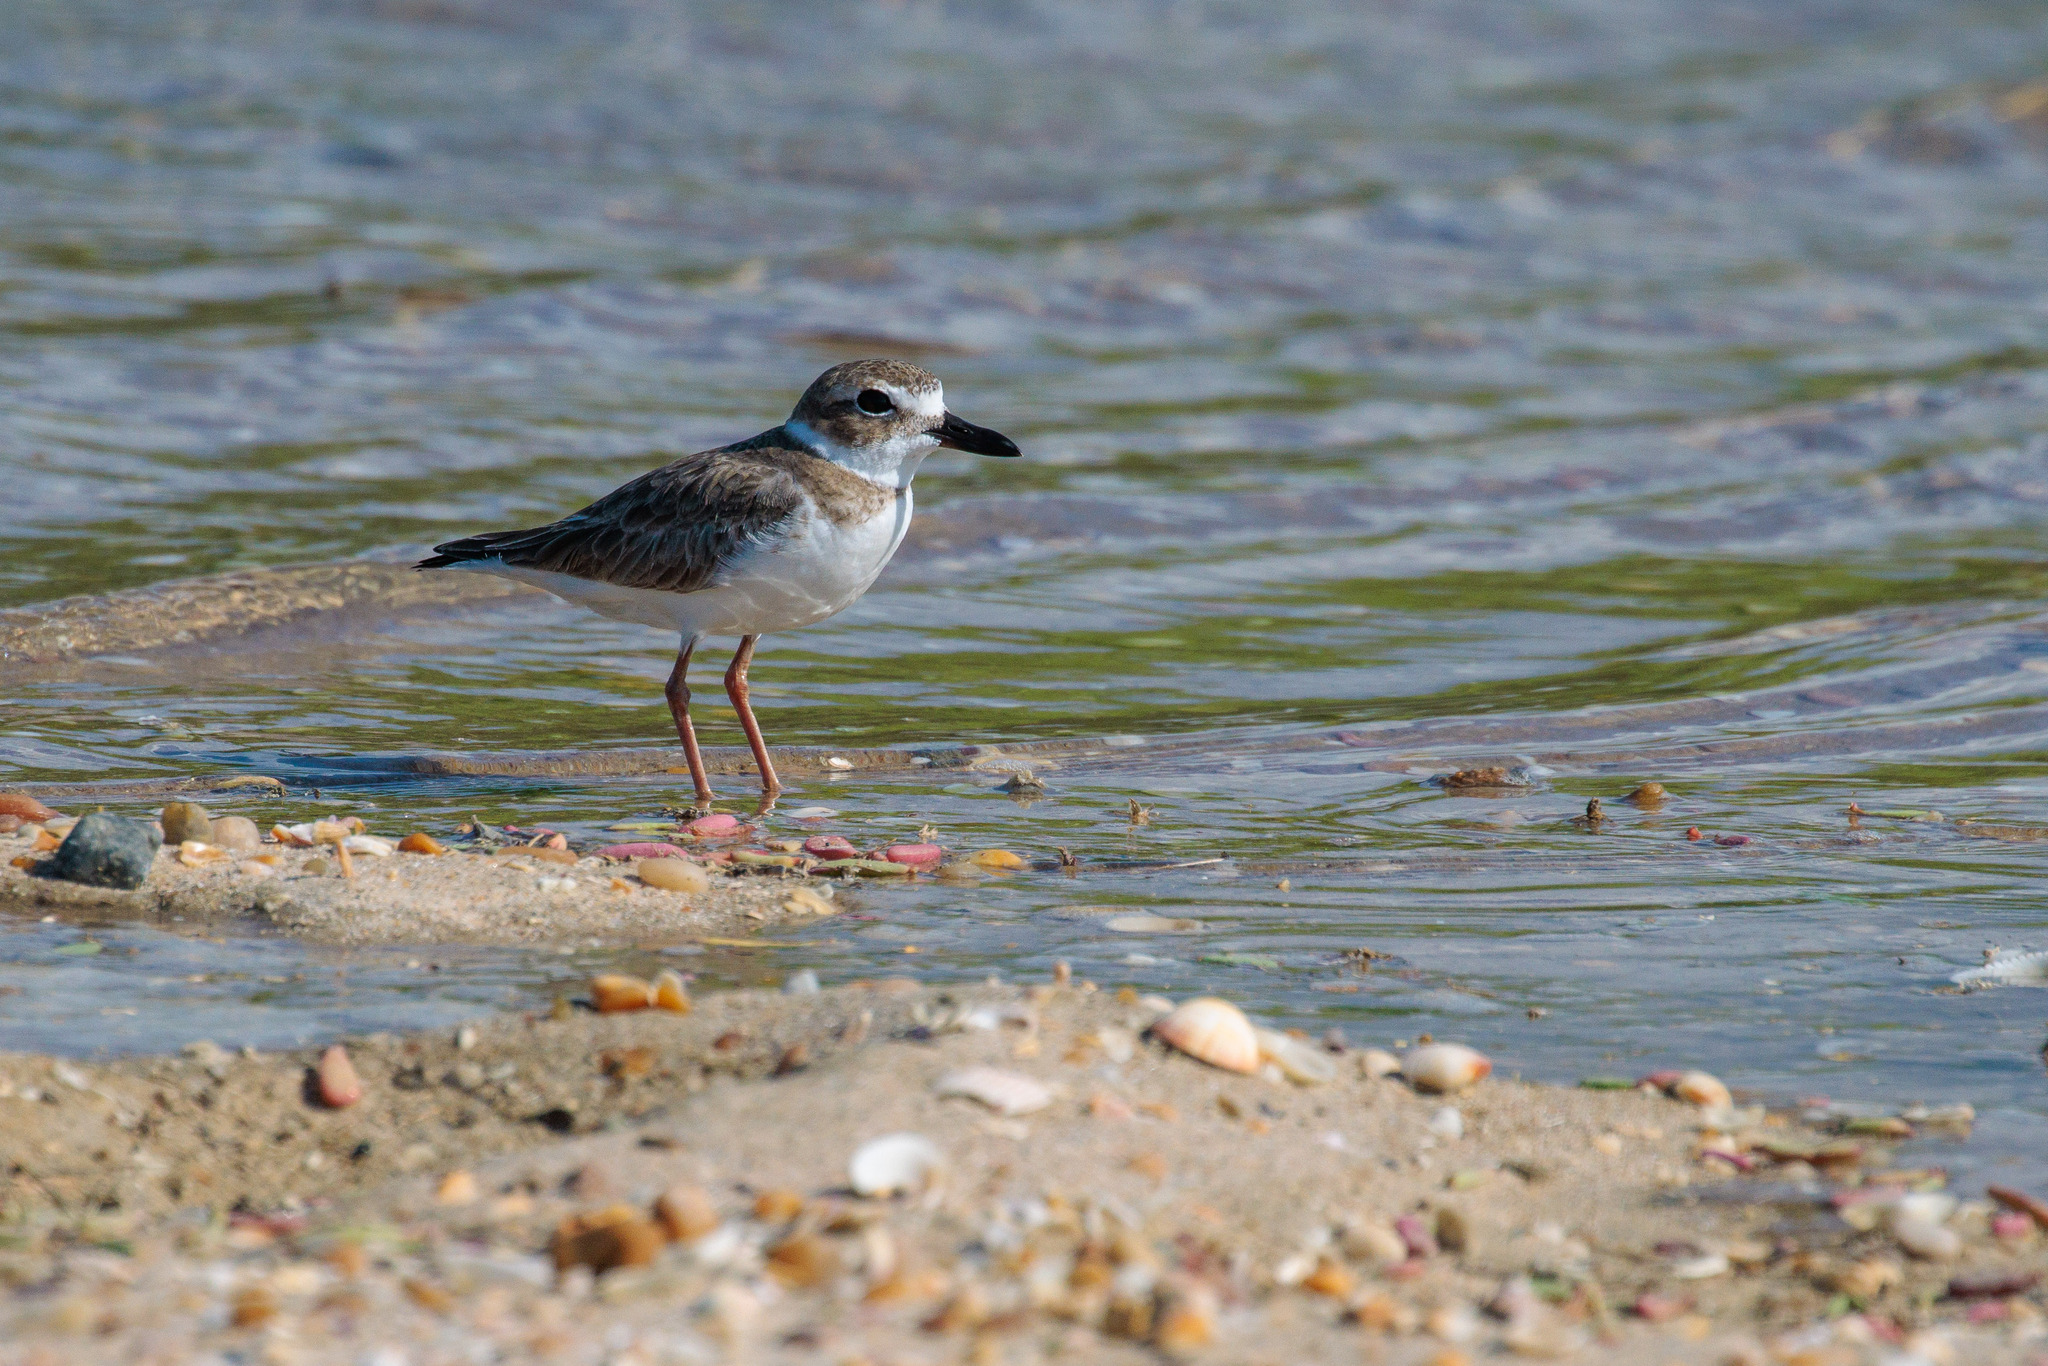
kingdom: Animalia
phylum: Chordata
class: Aves
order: Charadriiformes
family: Charadriidae
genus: Anarhynchus
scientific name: Anarhynchus
